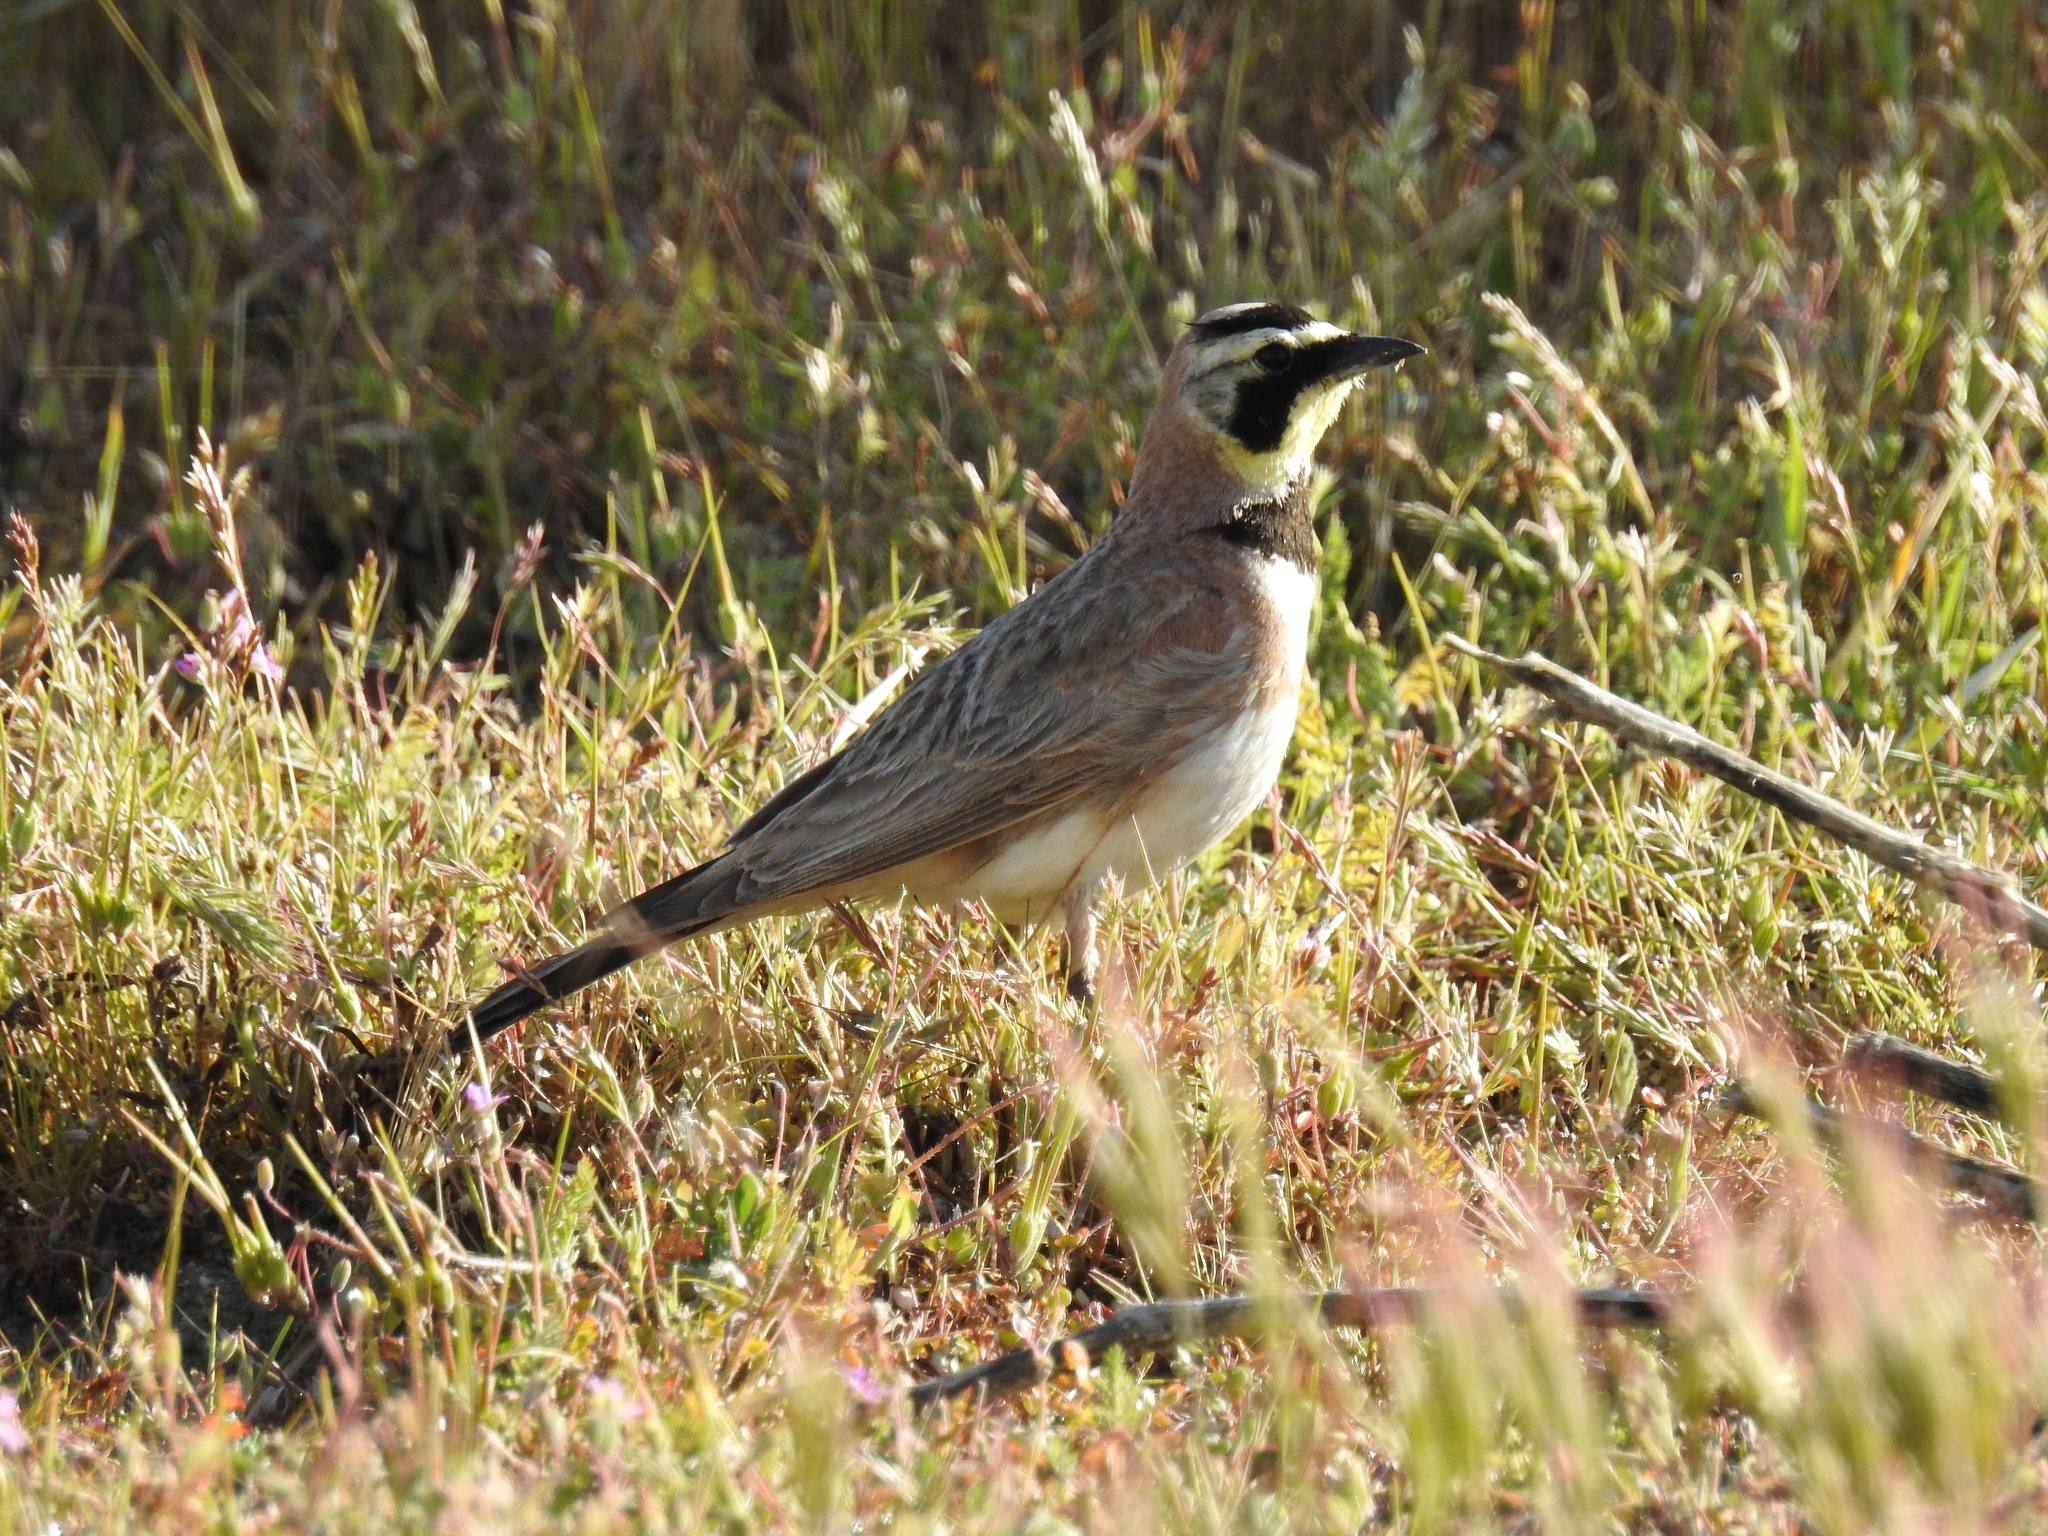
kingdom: Animalia
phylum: Chordata
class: Aves
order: Passeriformes
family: Alaudidae
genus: Eremophila
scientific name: Eremophila alpestris
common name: Horned lark
